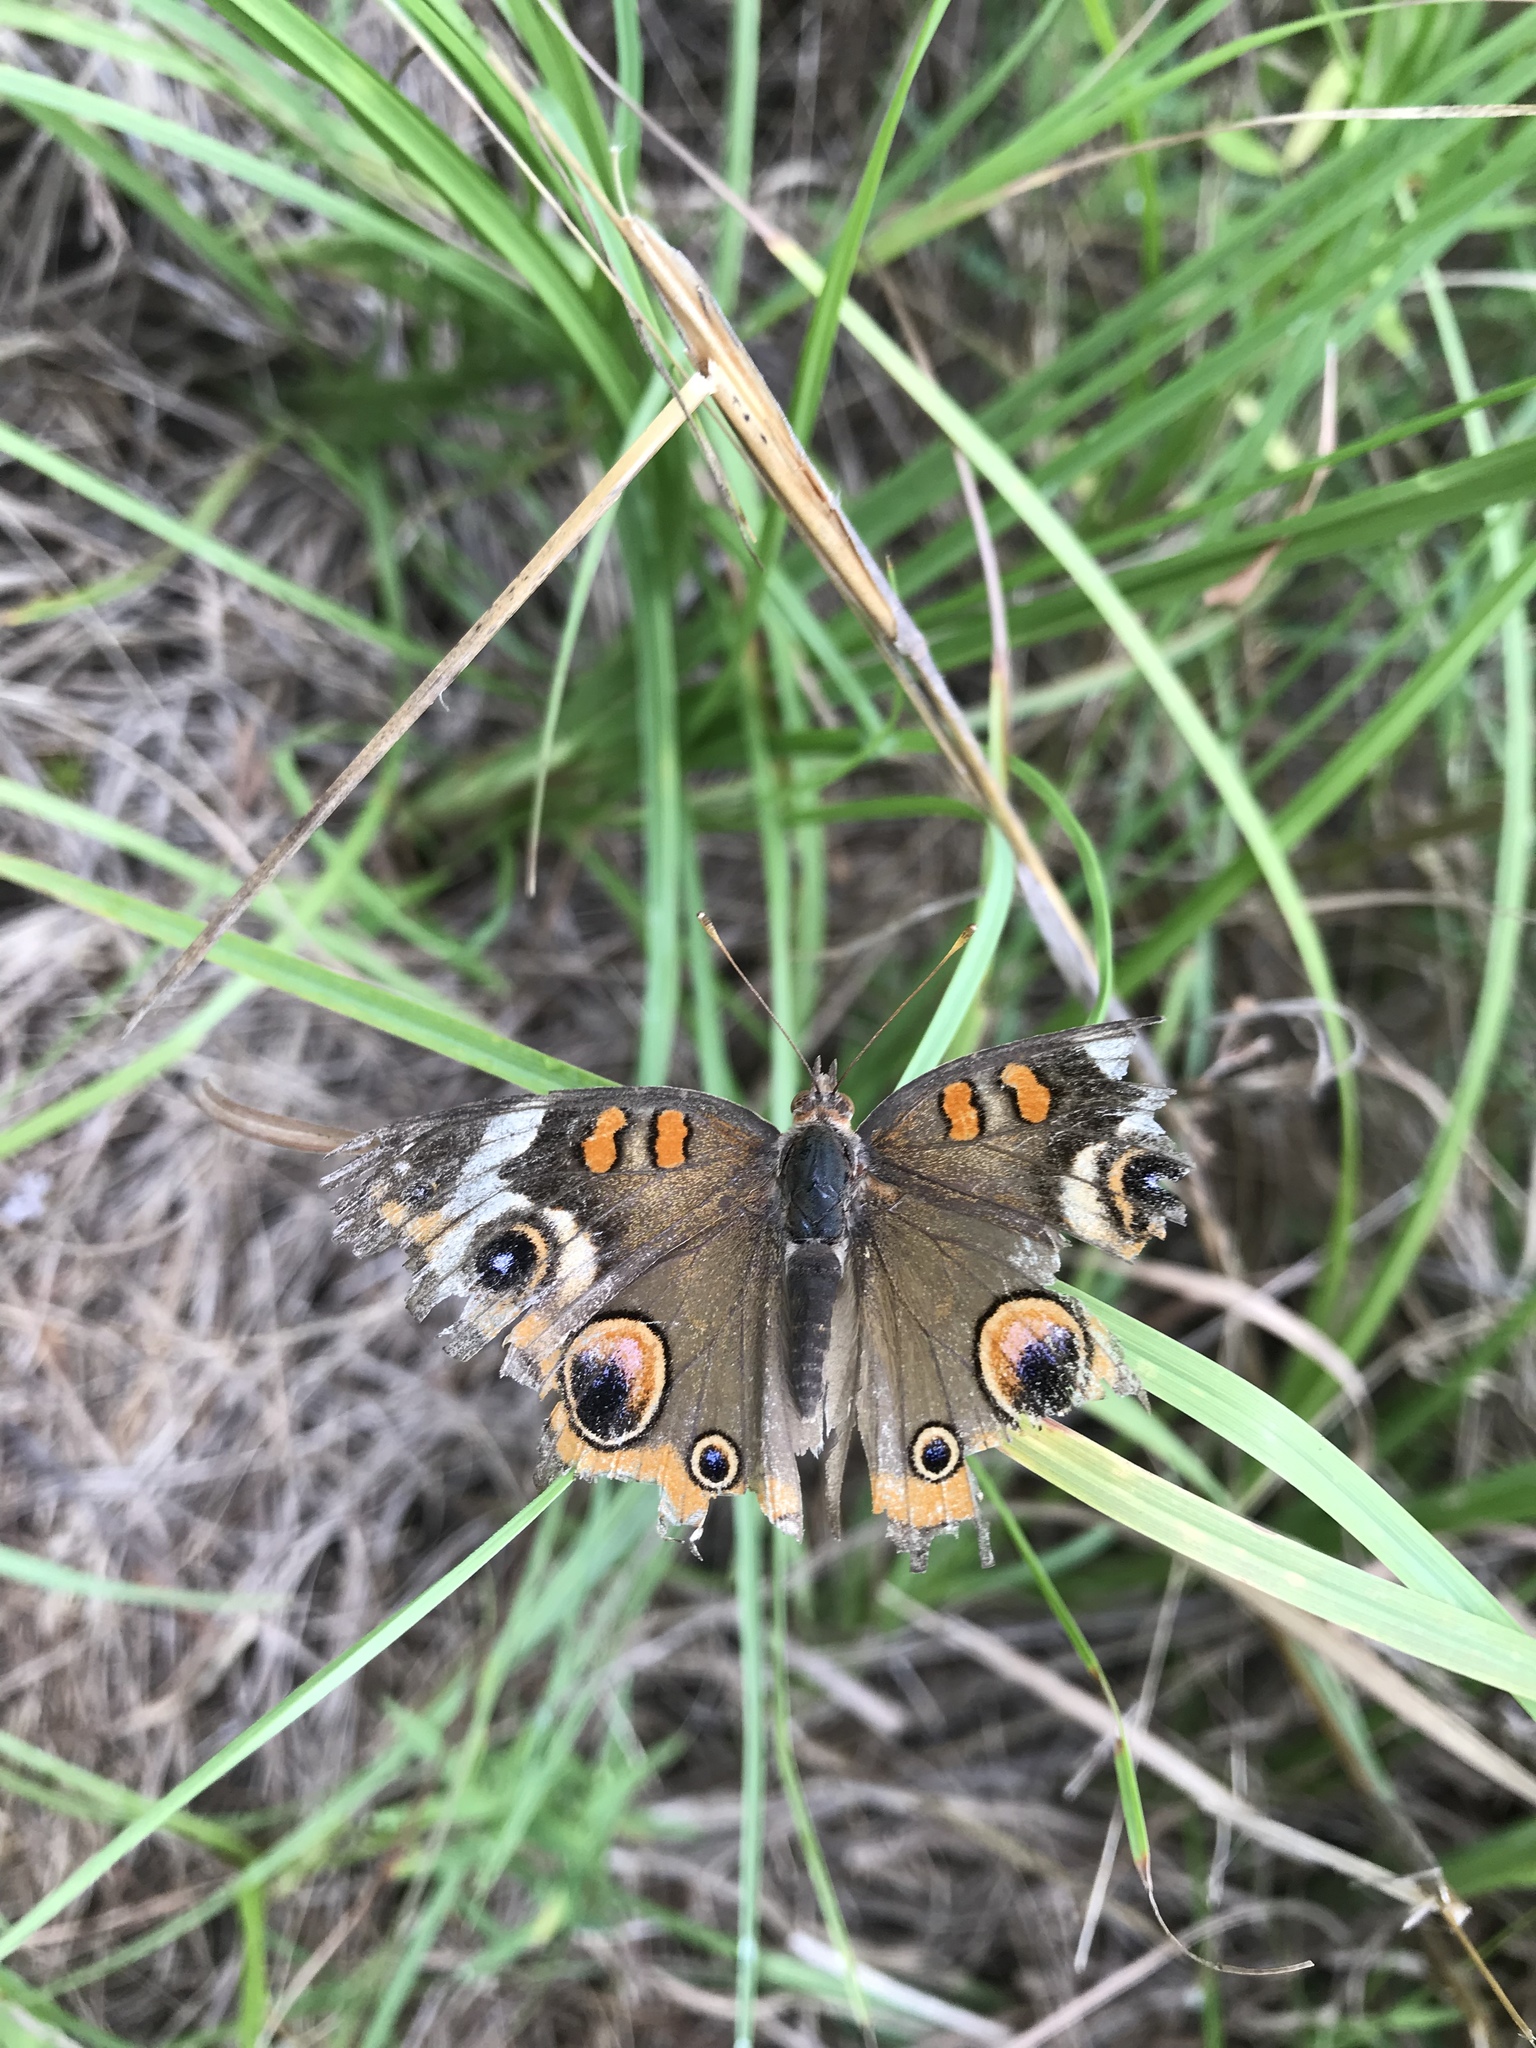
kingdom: Animalia
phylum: Arthropoda
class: Insecta
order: Lepidoptera
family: Nymphalidae
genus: Junonia
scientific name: Junonia coenia
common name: Common buckeye
